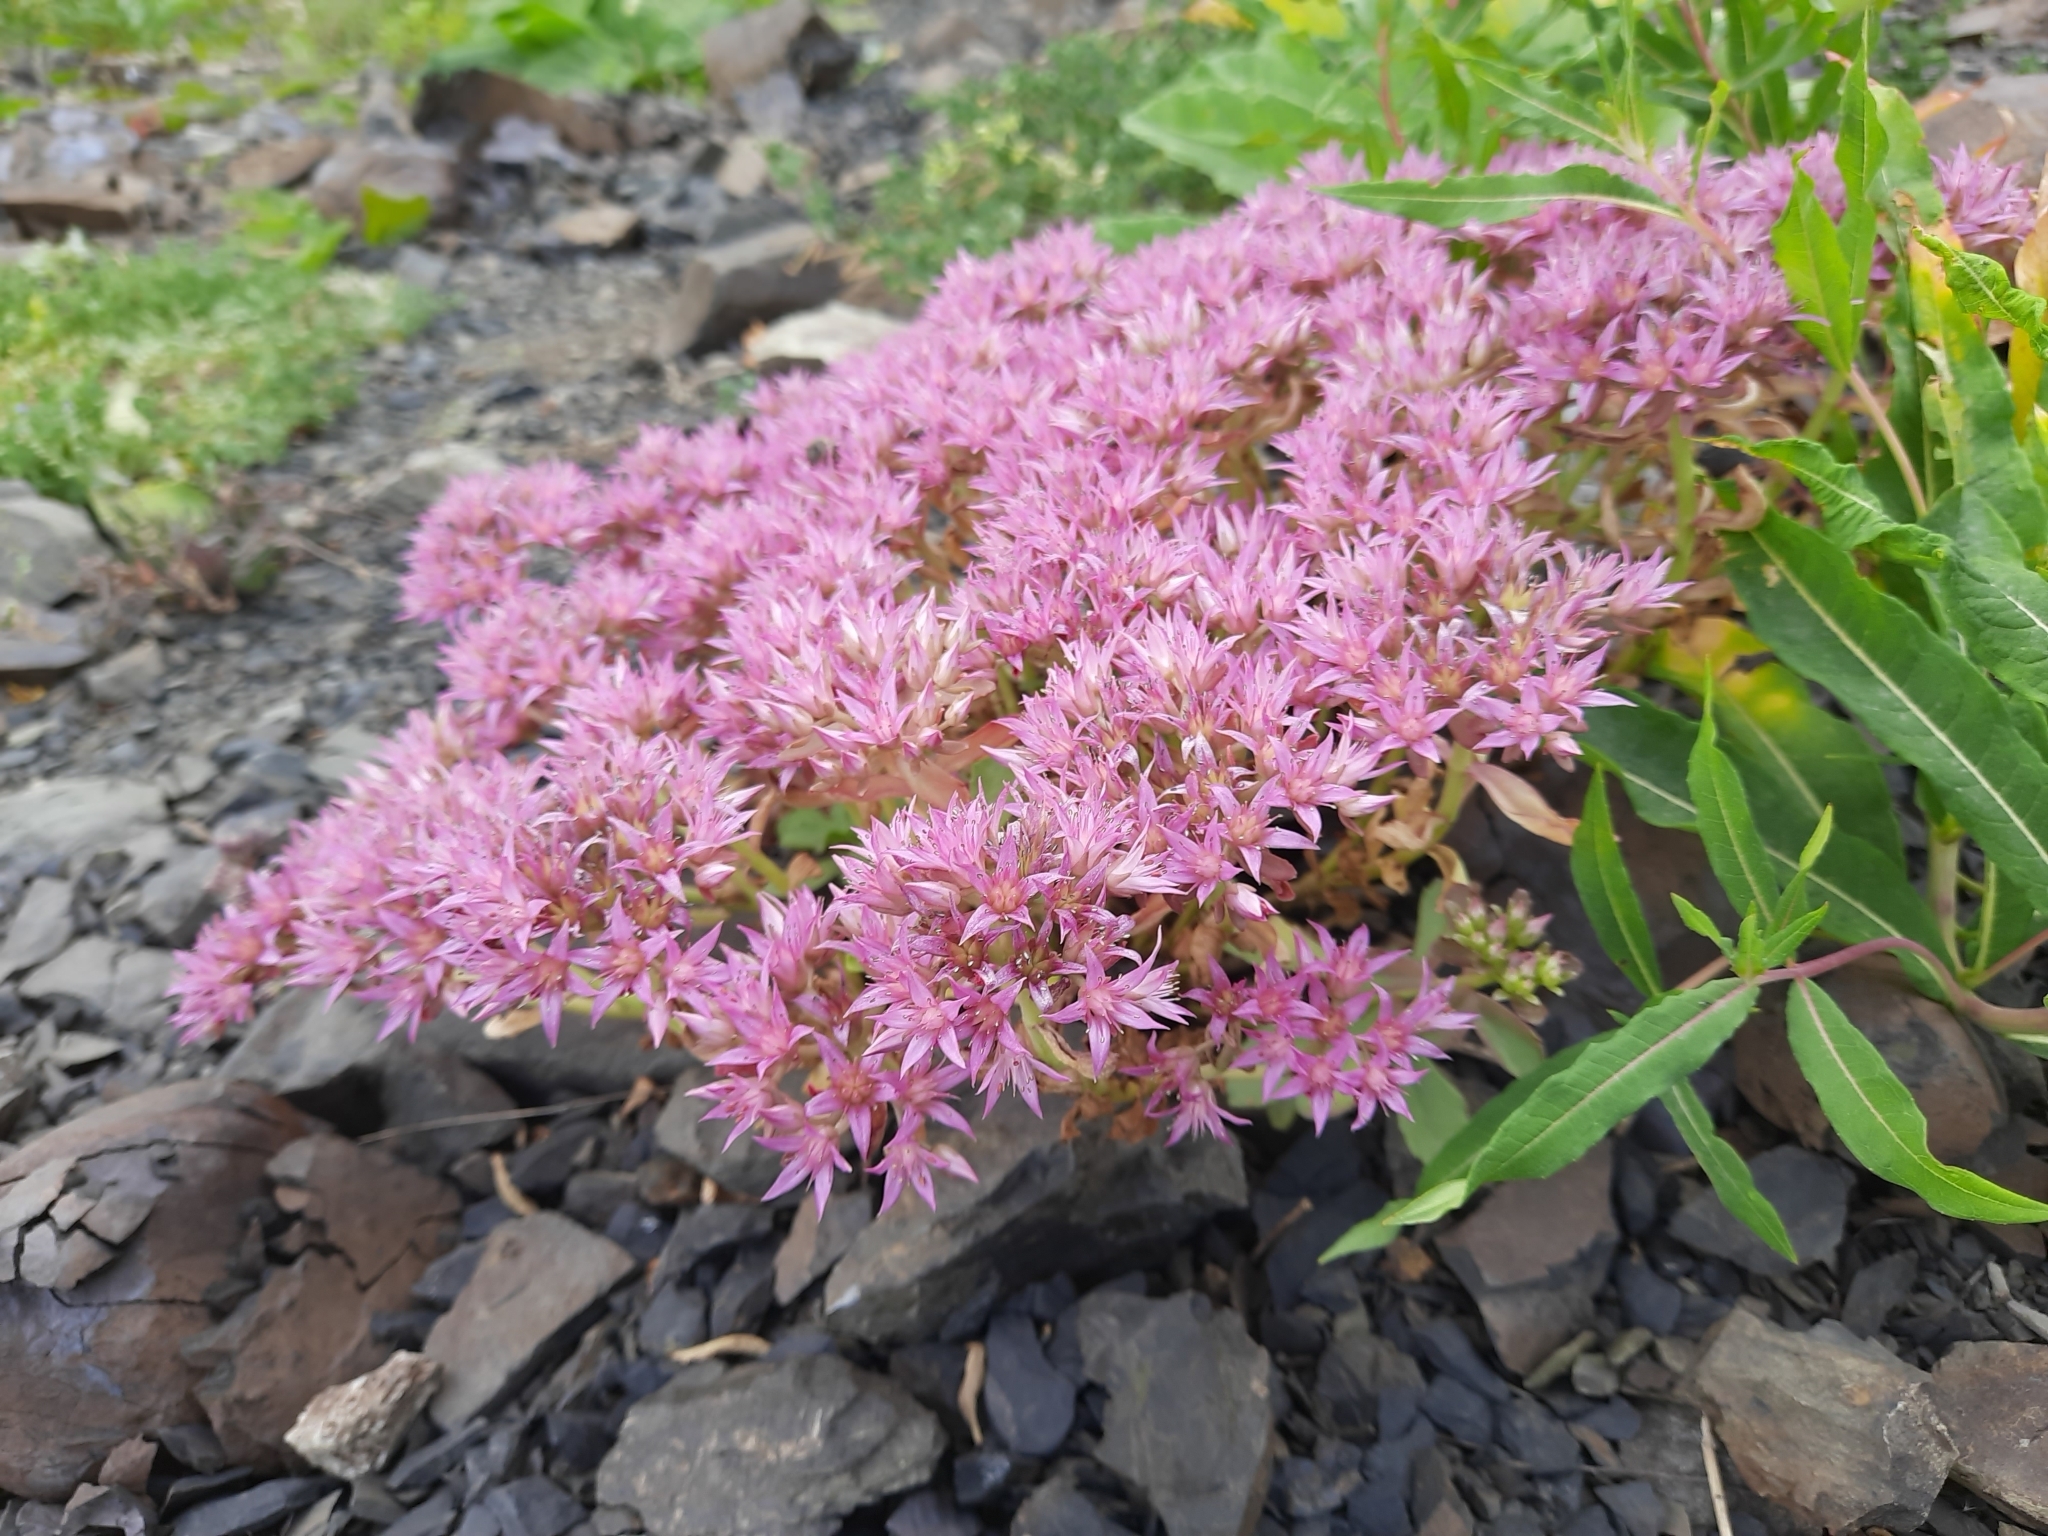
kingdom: Plantae
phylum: Tracheophyta
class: Magnoliopsida
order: Saxifragales
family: Crassulaceae
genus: Phedimus
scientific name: Phedimus spurius
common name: Caucasian stonecrop
